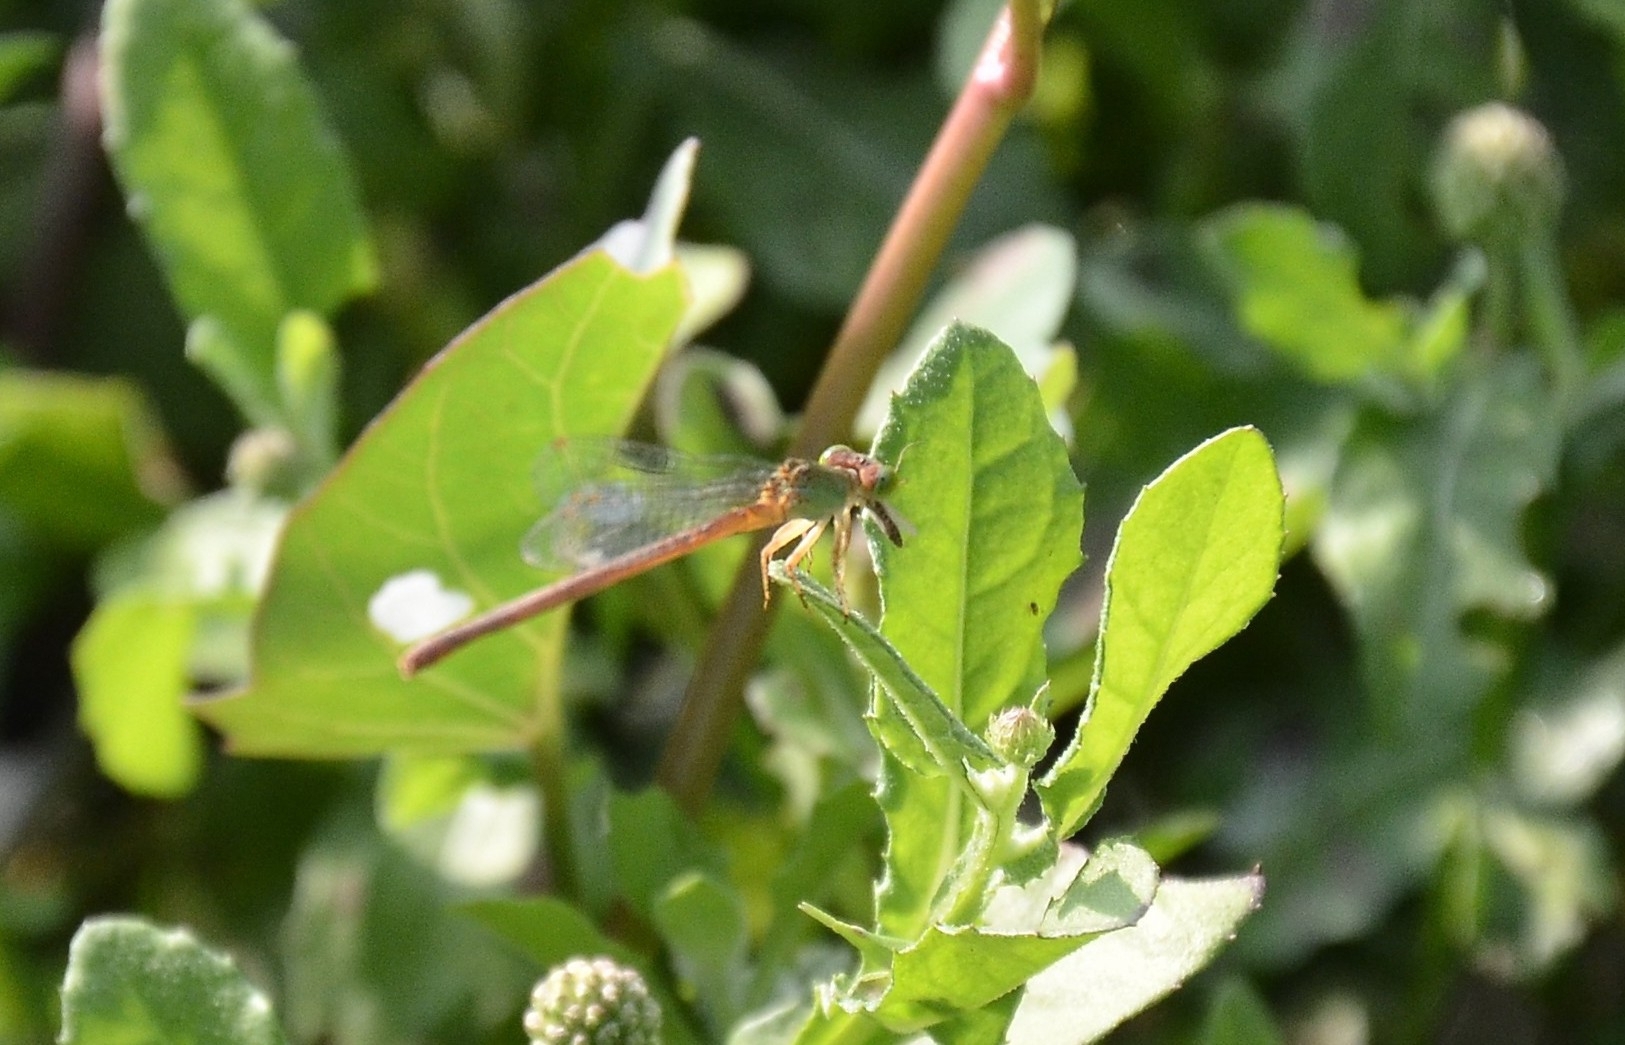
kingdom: Animalia
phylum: Arthropoda
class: Insecta
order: Odonata
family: Coenagrionidae
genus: Ceriagrion
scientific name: Ceriagrion coromandelianum
